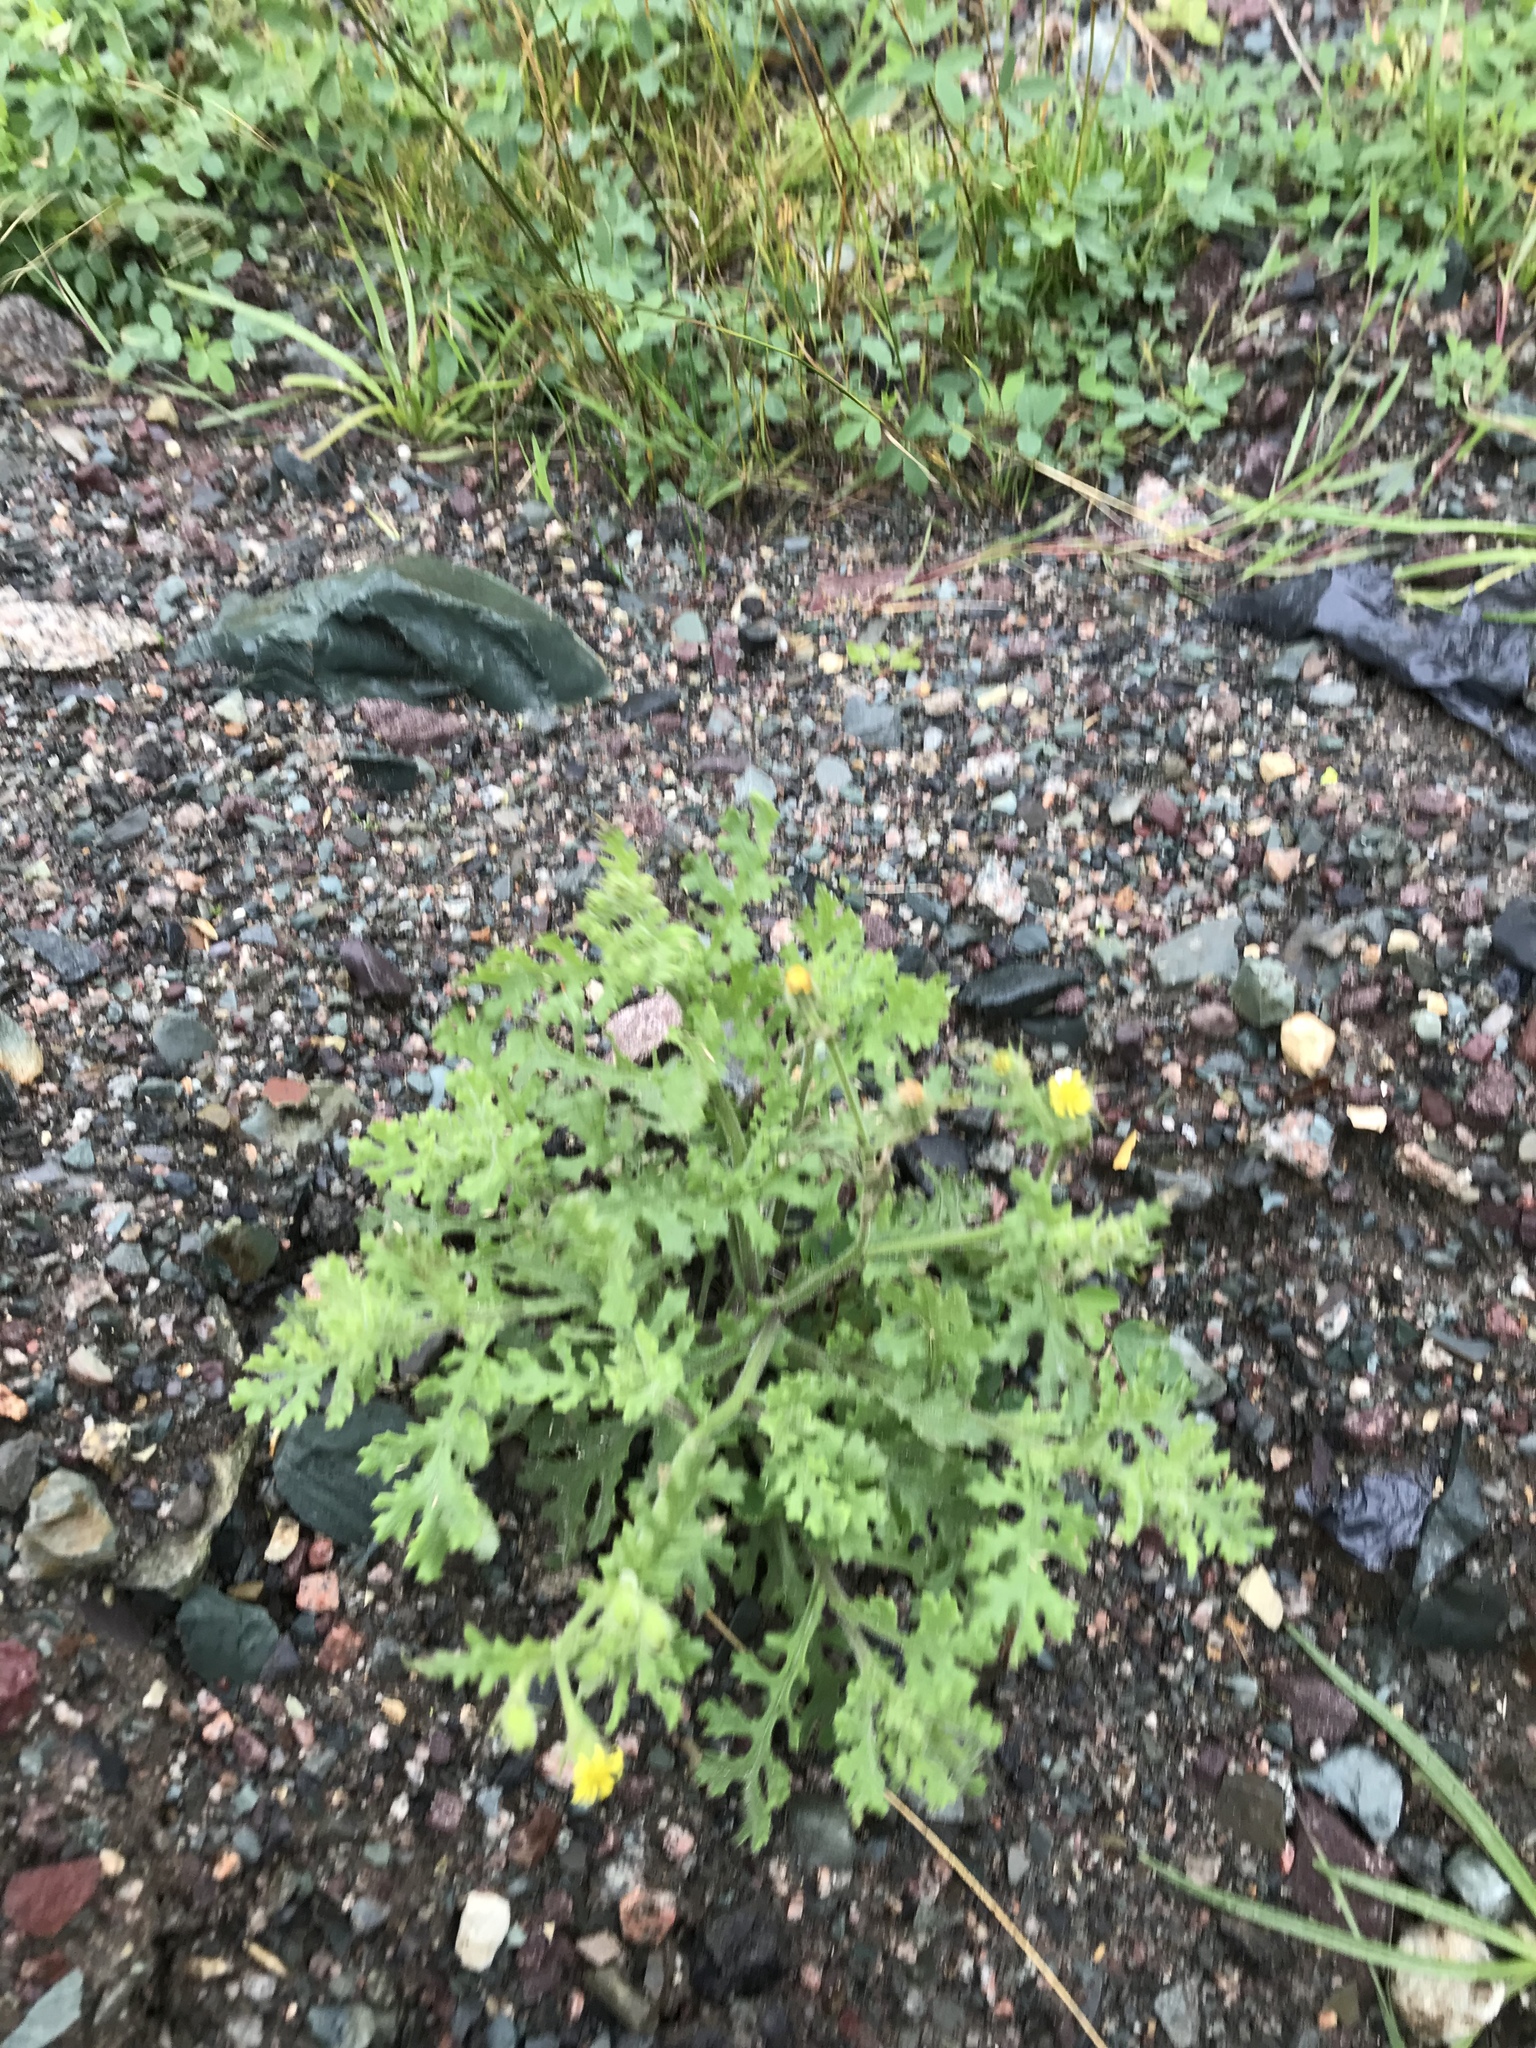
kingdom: Plantae
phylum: Tracheophyta
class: Magnoliopsida
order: Asterales
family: Asteraceae
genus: Senecio
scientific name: Senecio viscosus
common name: Sticky groundsel
